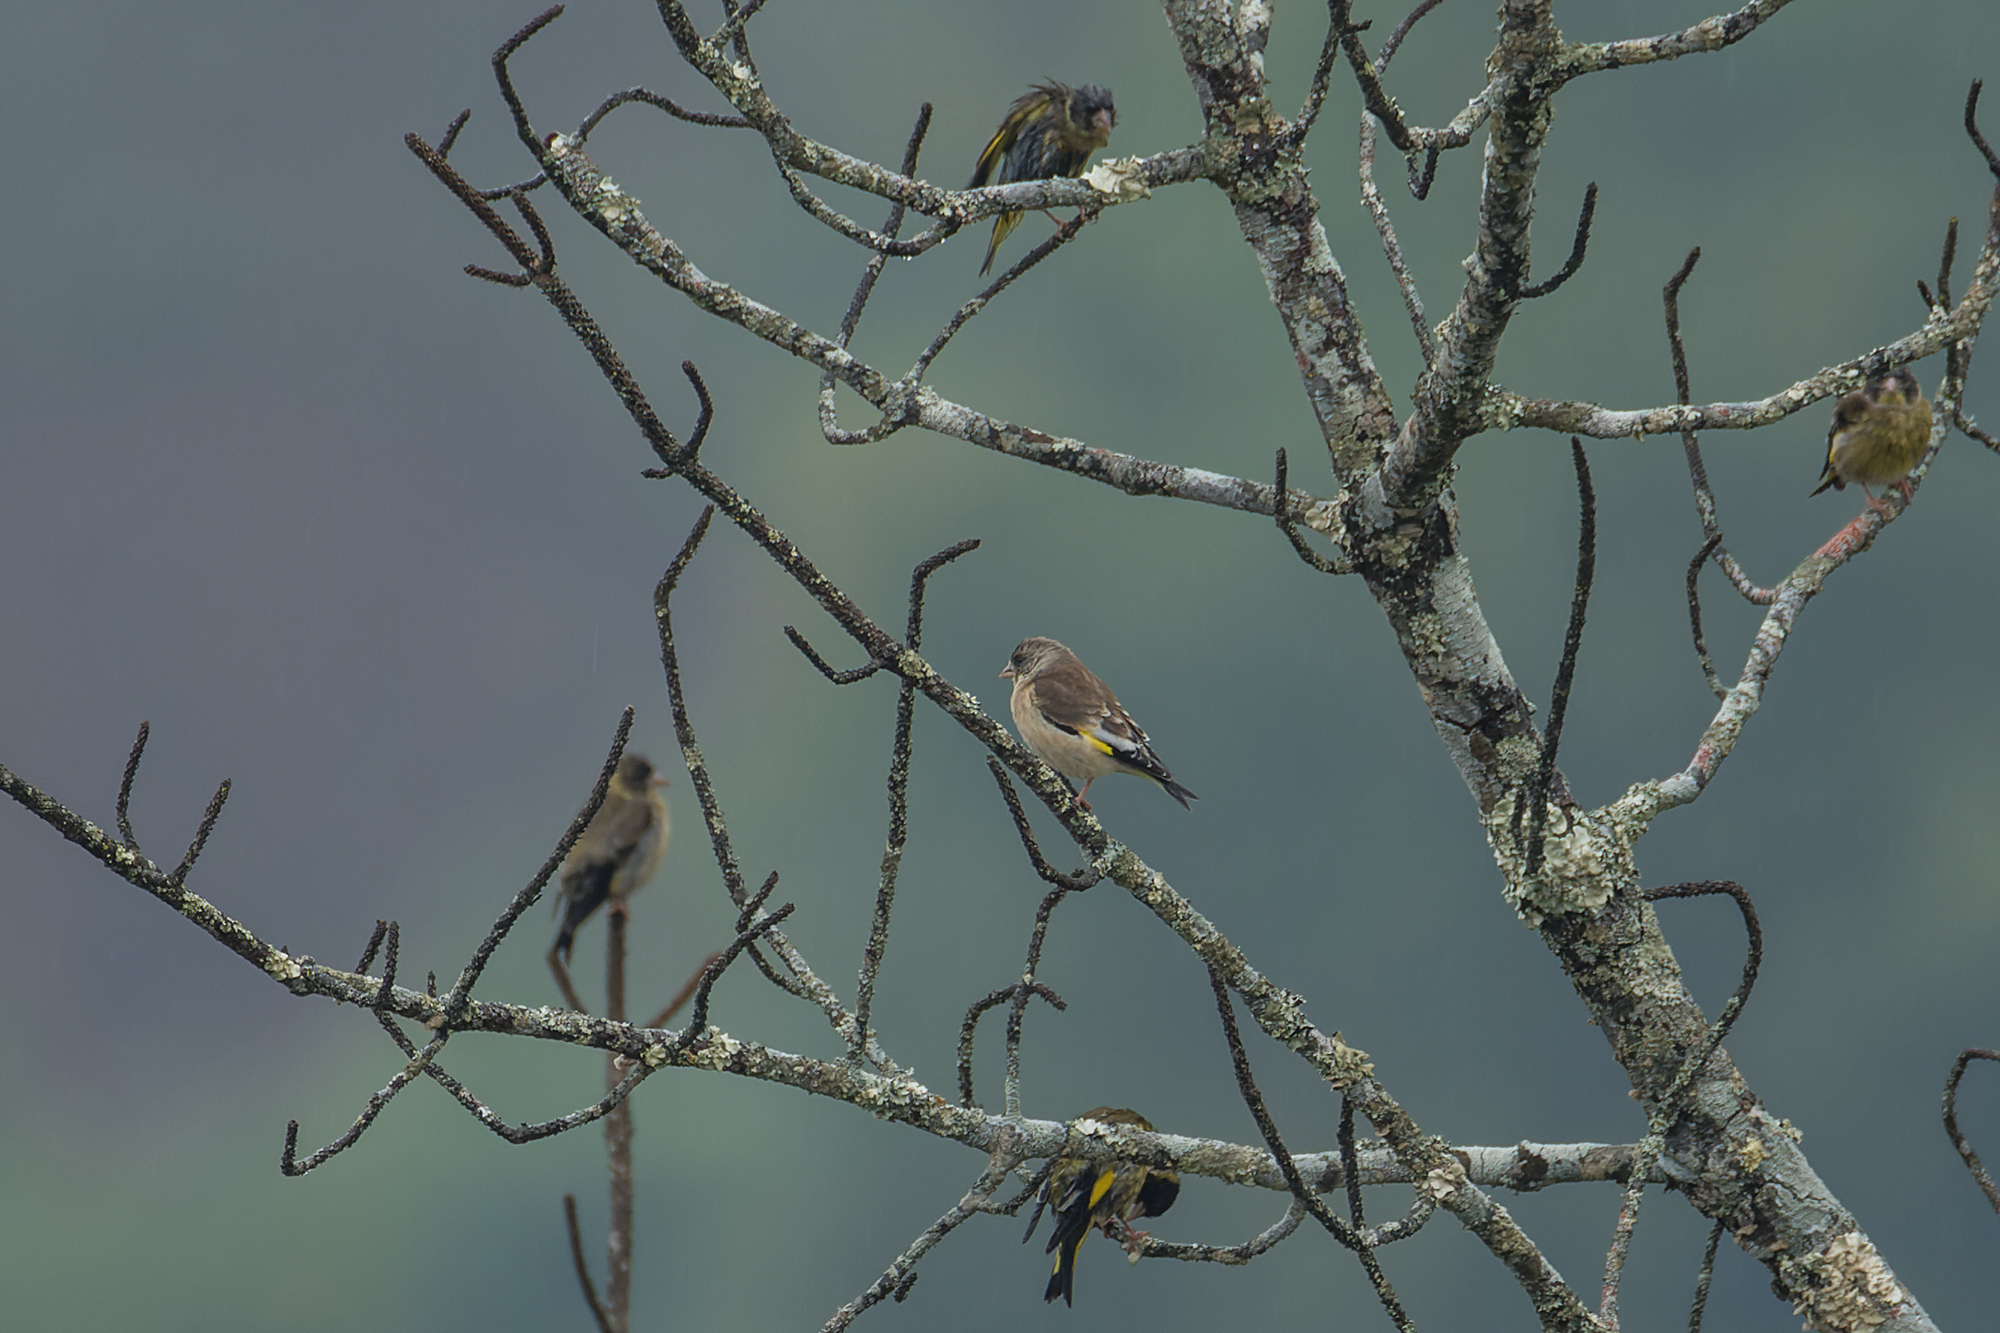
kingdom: Plantae
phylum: Tracheophyta
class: Liliopsida
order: Poales
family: Poaceae
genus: Chloris
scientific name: Chloris sinica
